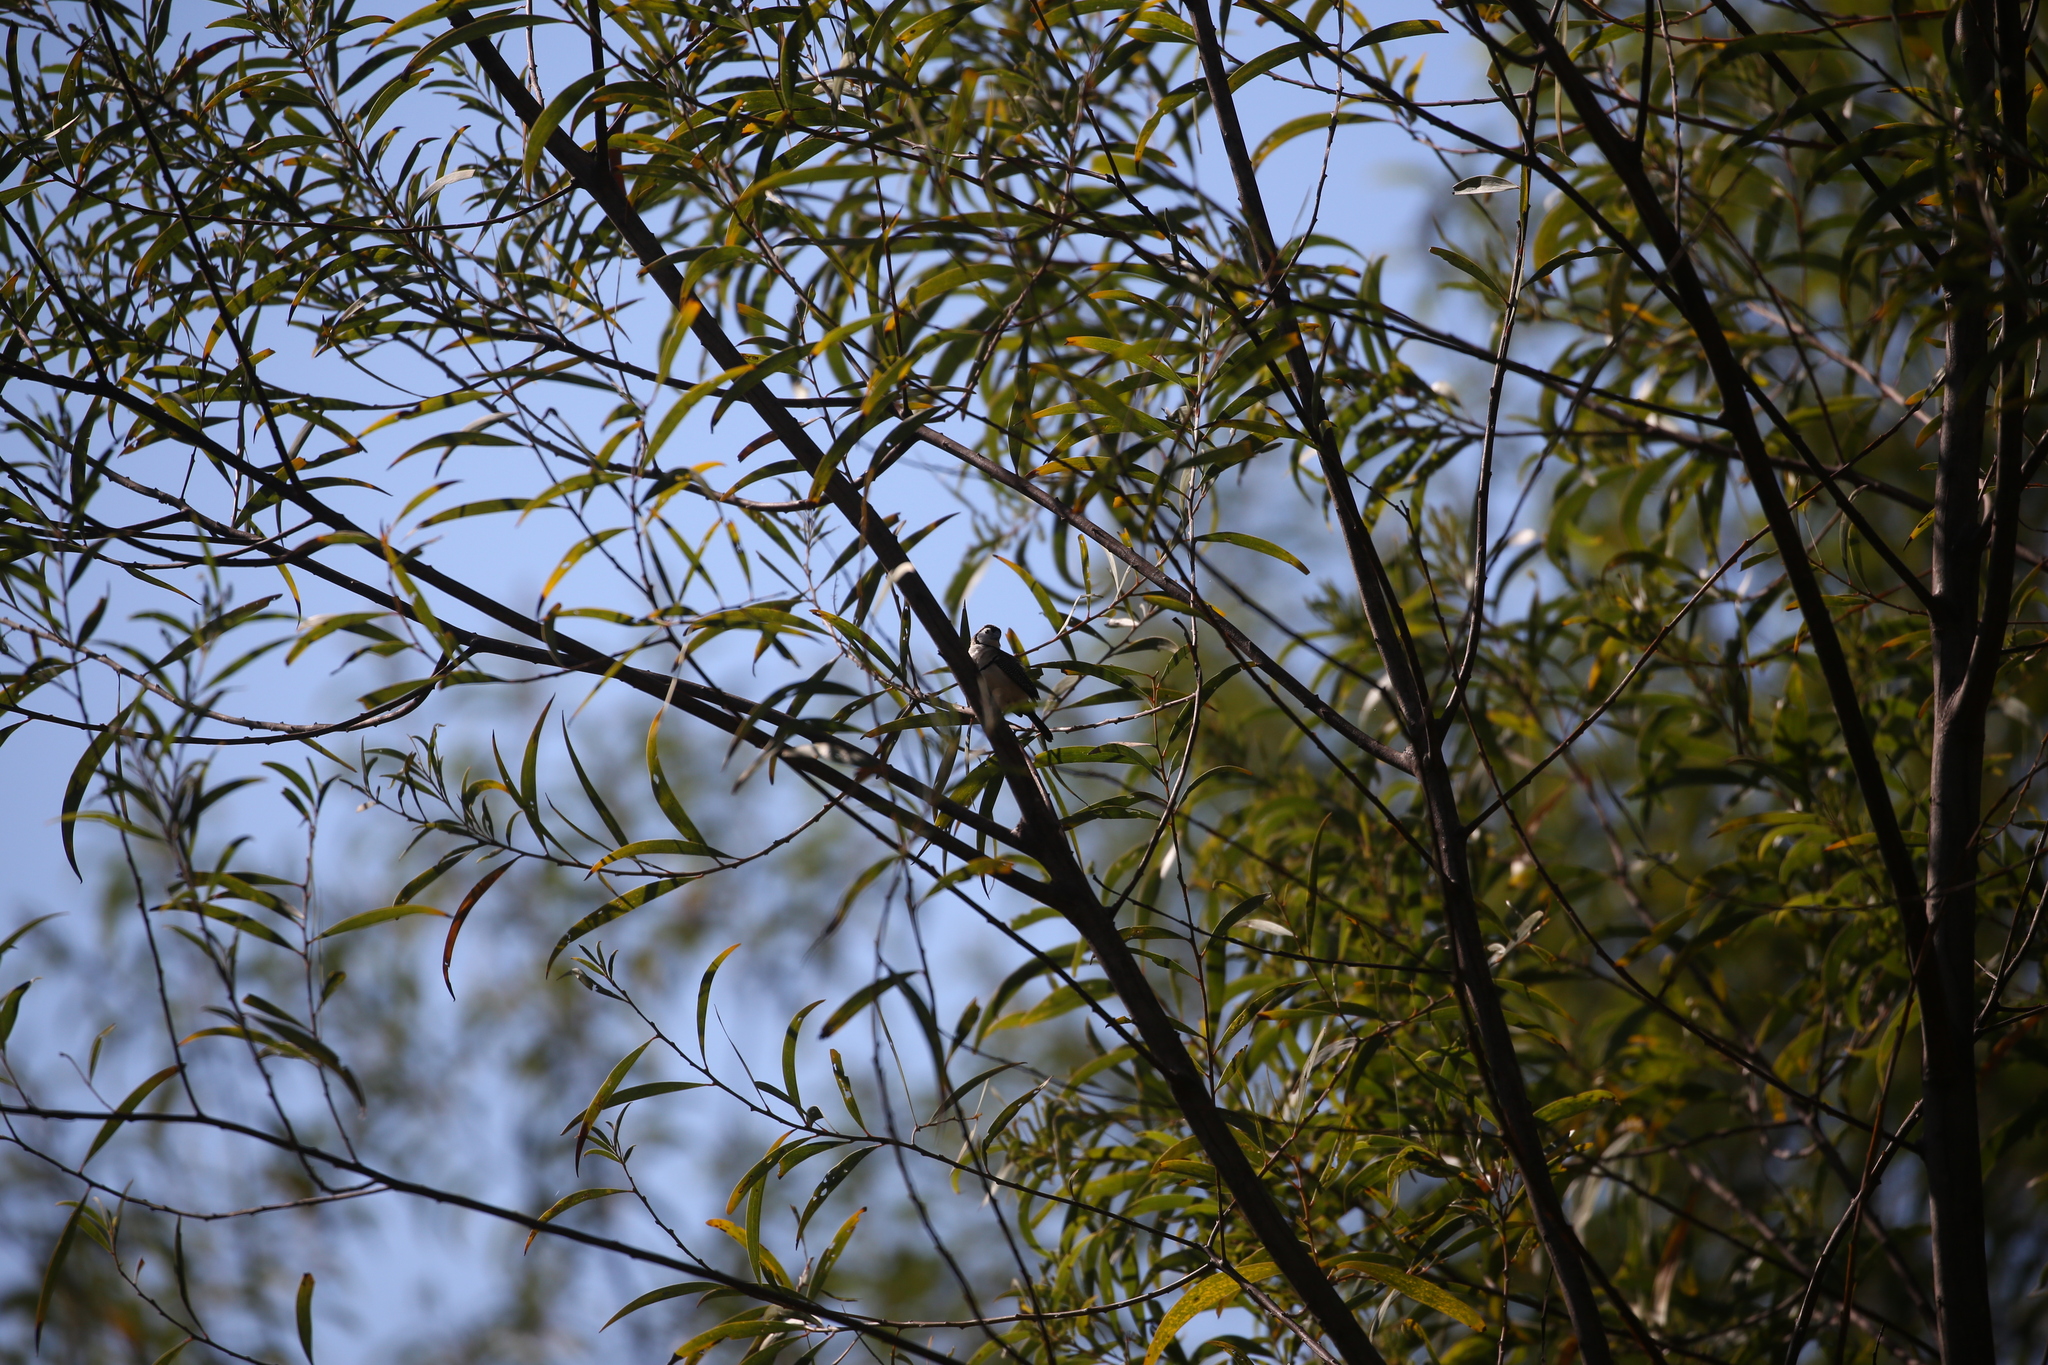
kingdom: Animalia
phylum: Chordata
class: Aves
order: Passeriformes
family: Estrildidae
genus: Taeniopygia
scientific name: Taeniopygia bichenovii
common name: Double-barred finch
